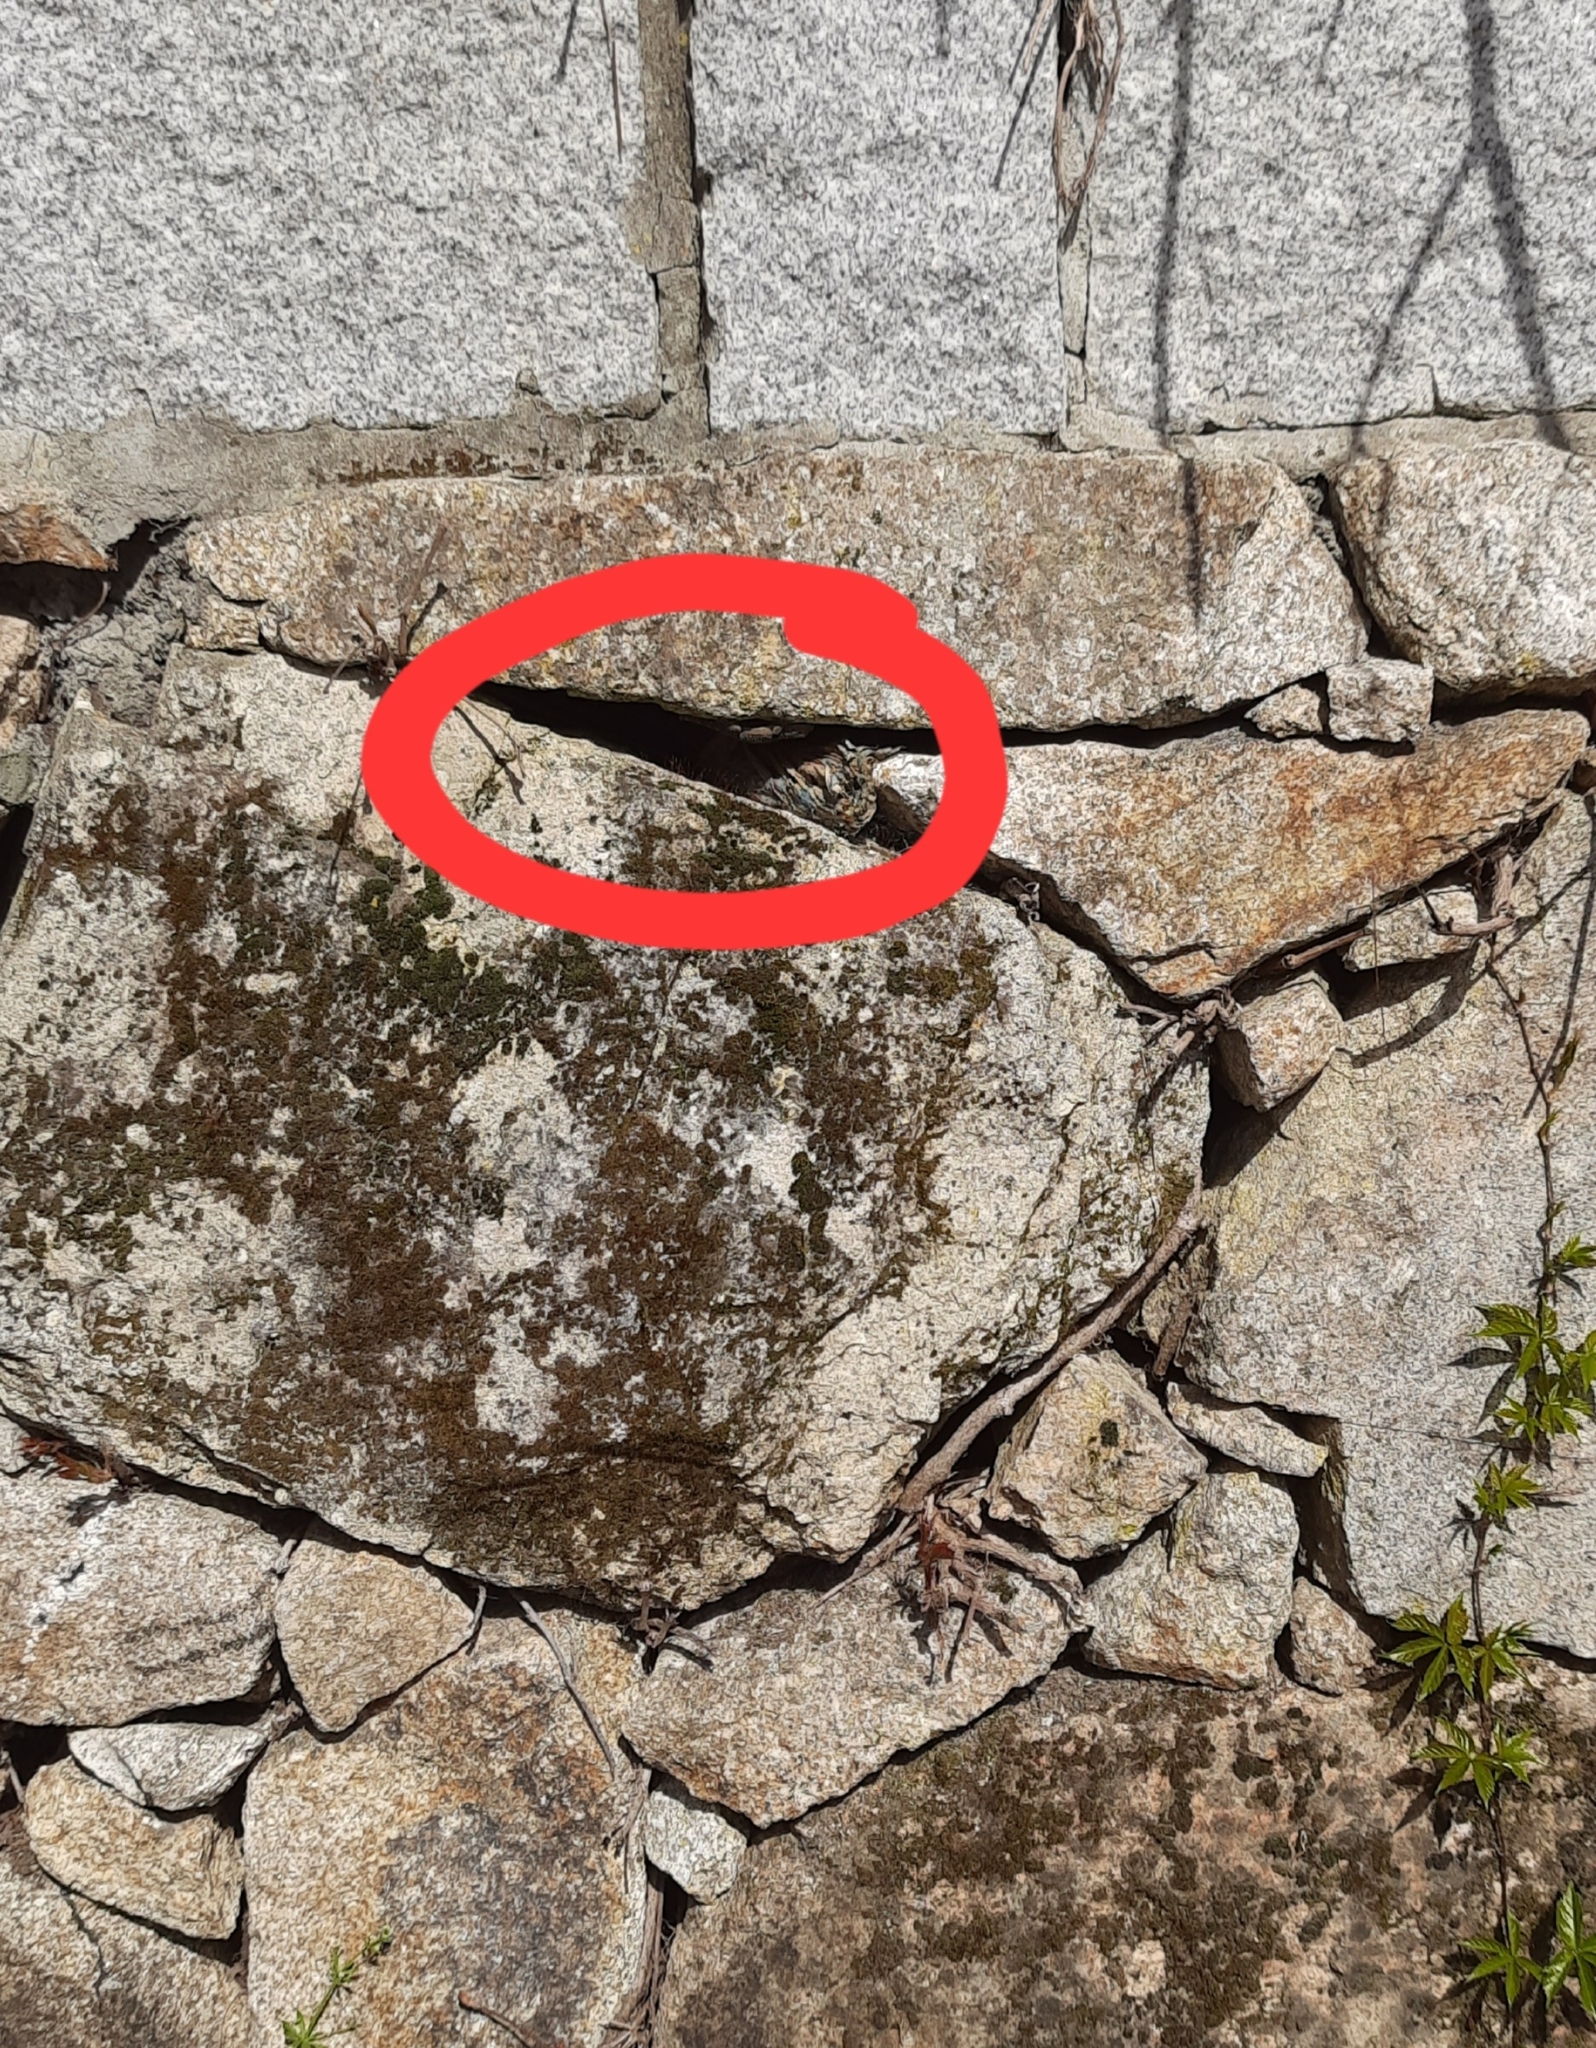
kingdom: Animalia
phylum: Chordata
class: Squamata
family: Phyllodactylidae
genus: Tarentola
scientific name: Tarentola mauritanica
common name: Moorish gecko
